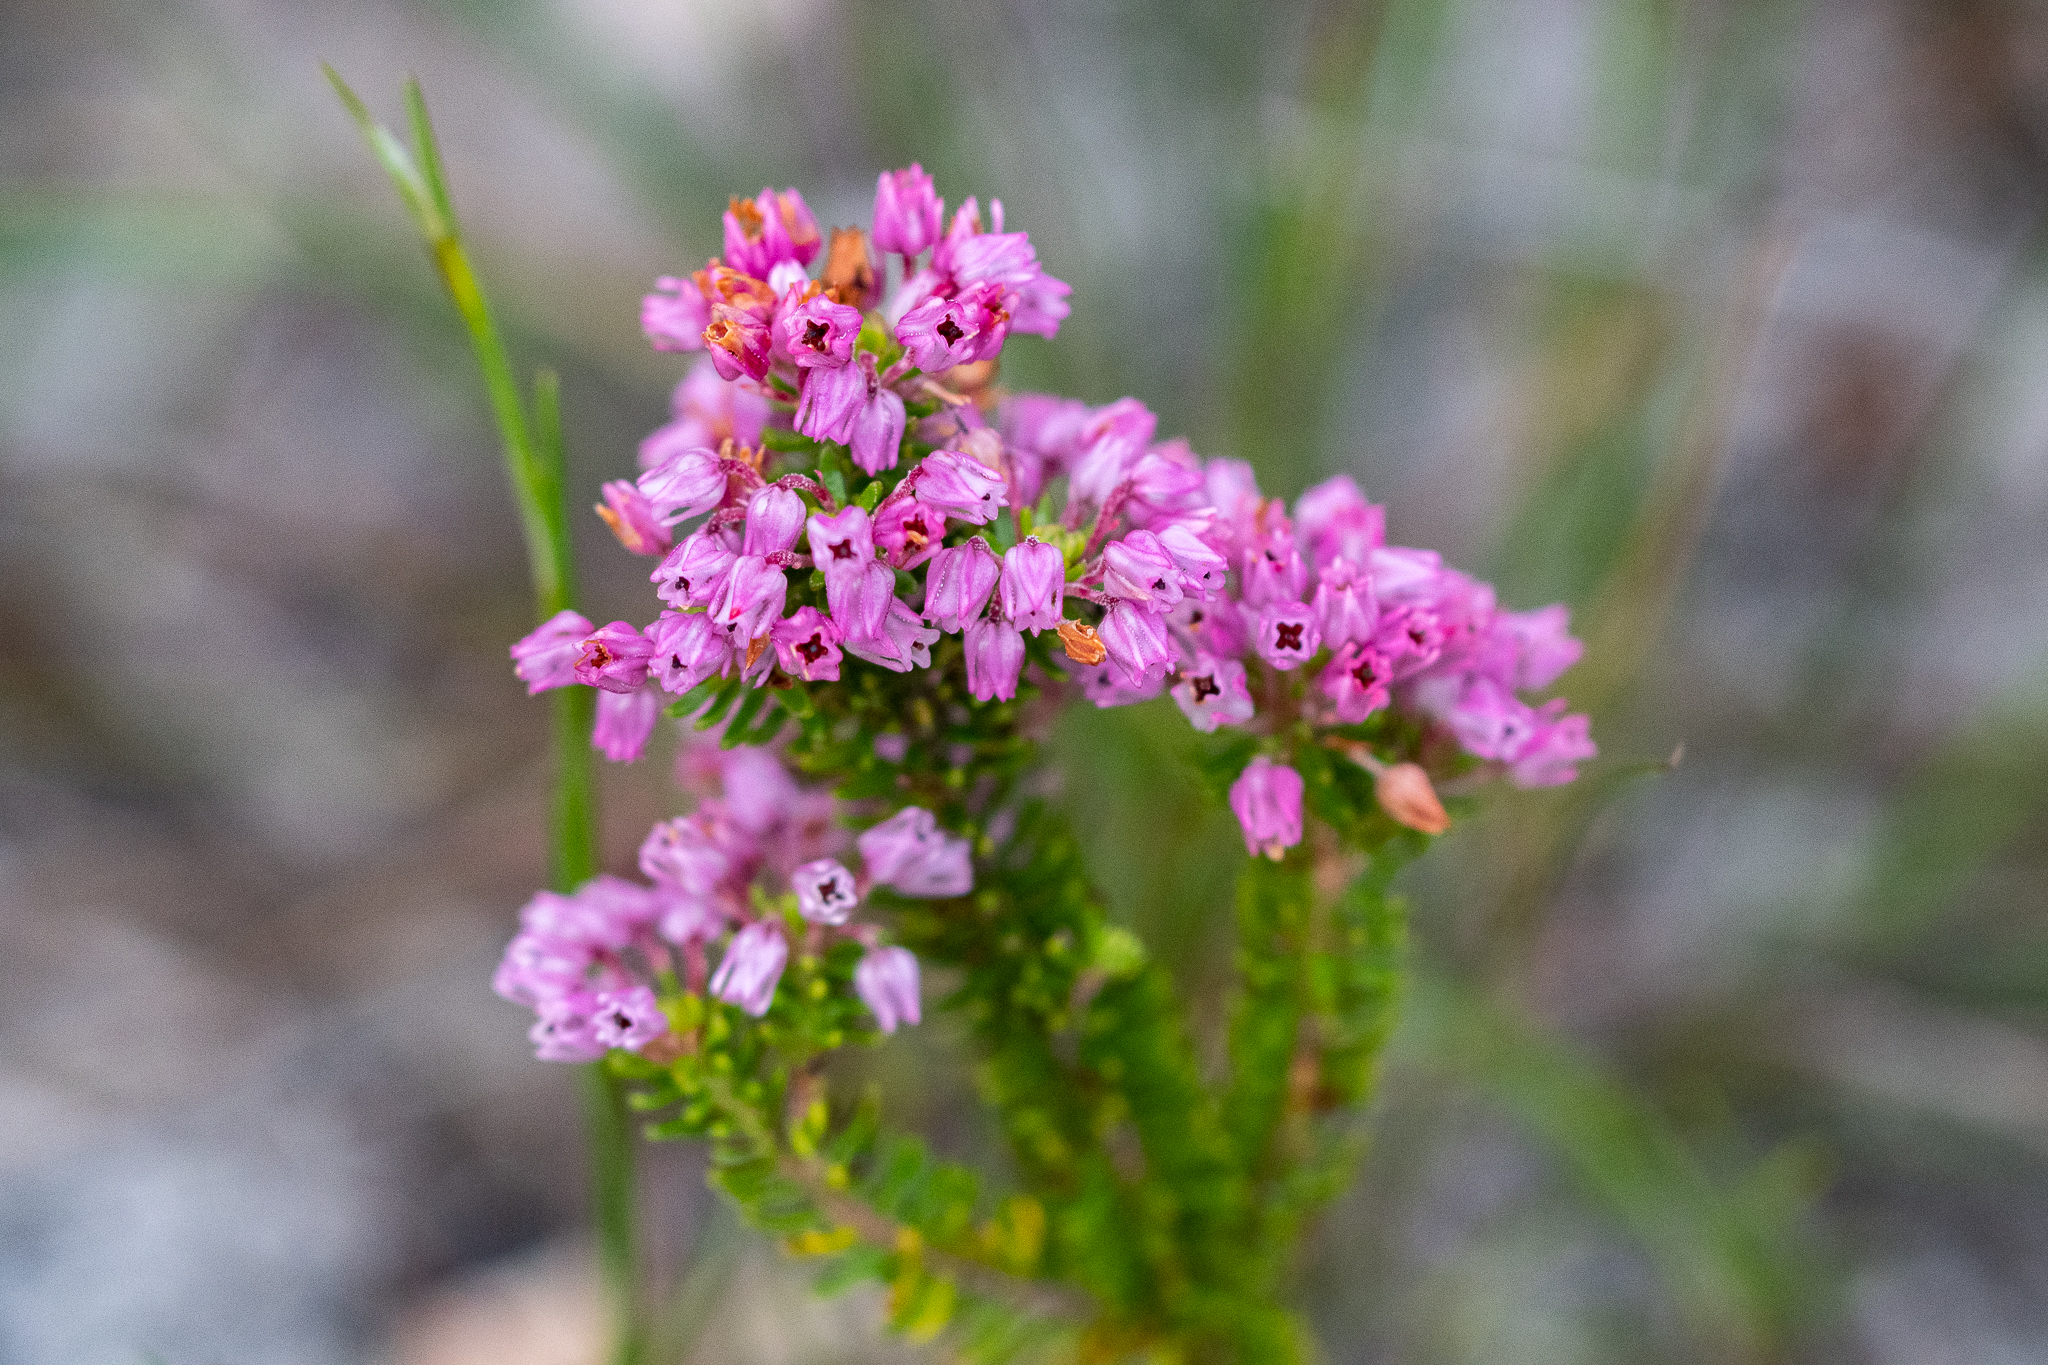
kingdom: Plantae
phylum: Tracheophyta
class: Magnoliopsida
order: Ericales
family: Ericaceae
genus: Erica
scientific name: Erica collina
